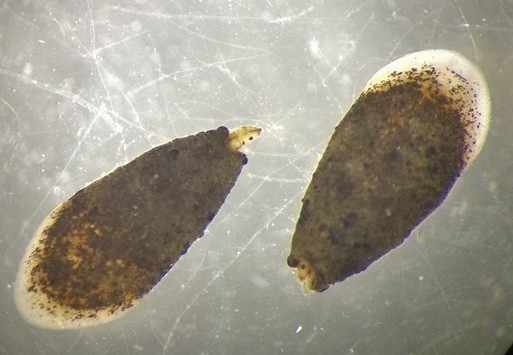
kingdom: Animalia
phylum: Arthropoda
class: Insecta
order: Trichoptera
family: Hydroptilidae
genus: Ithytrichia
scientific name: Ithytrichia lamellaris
